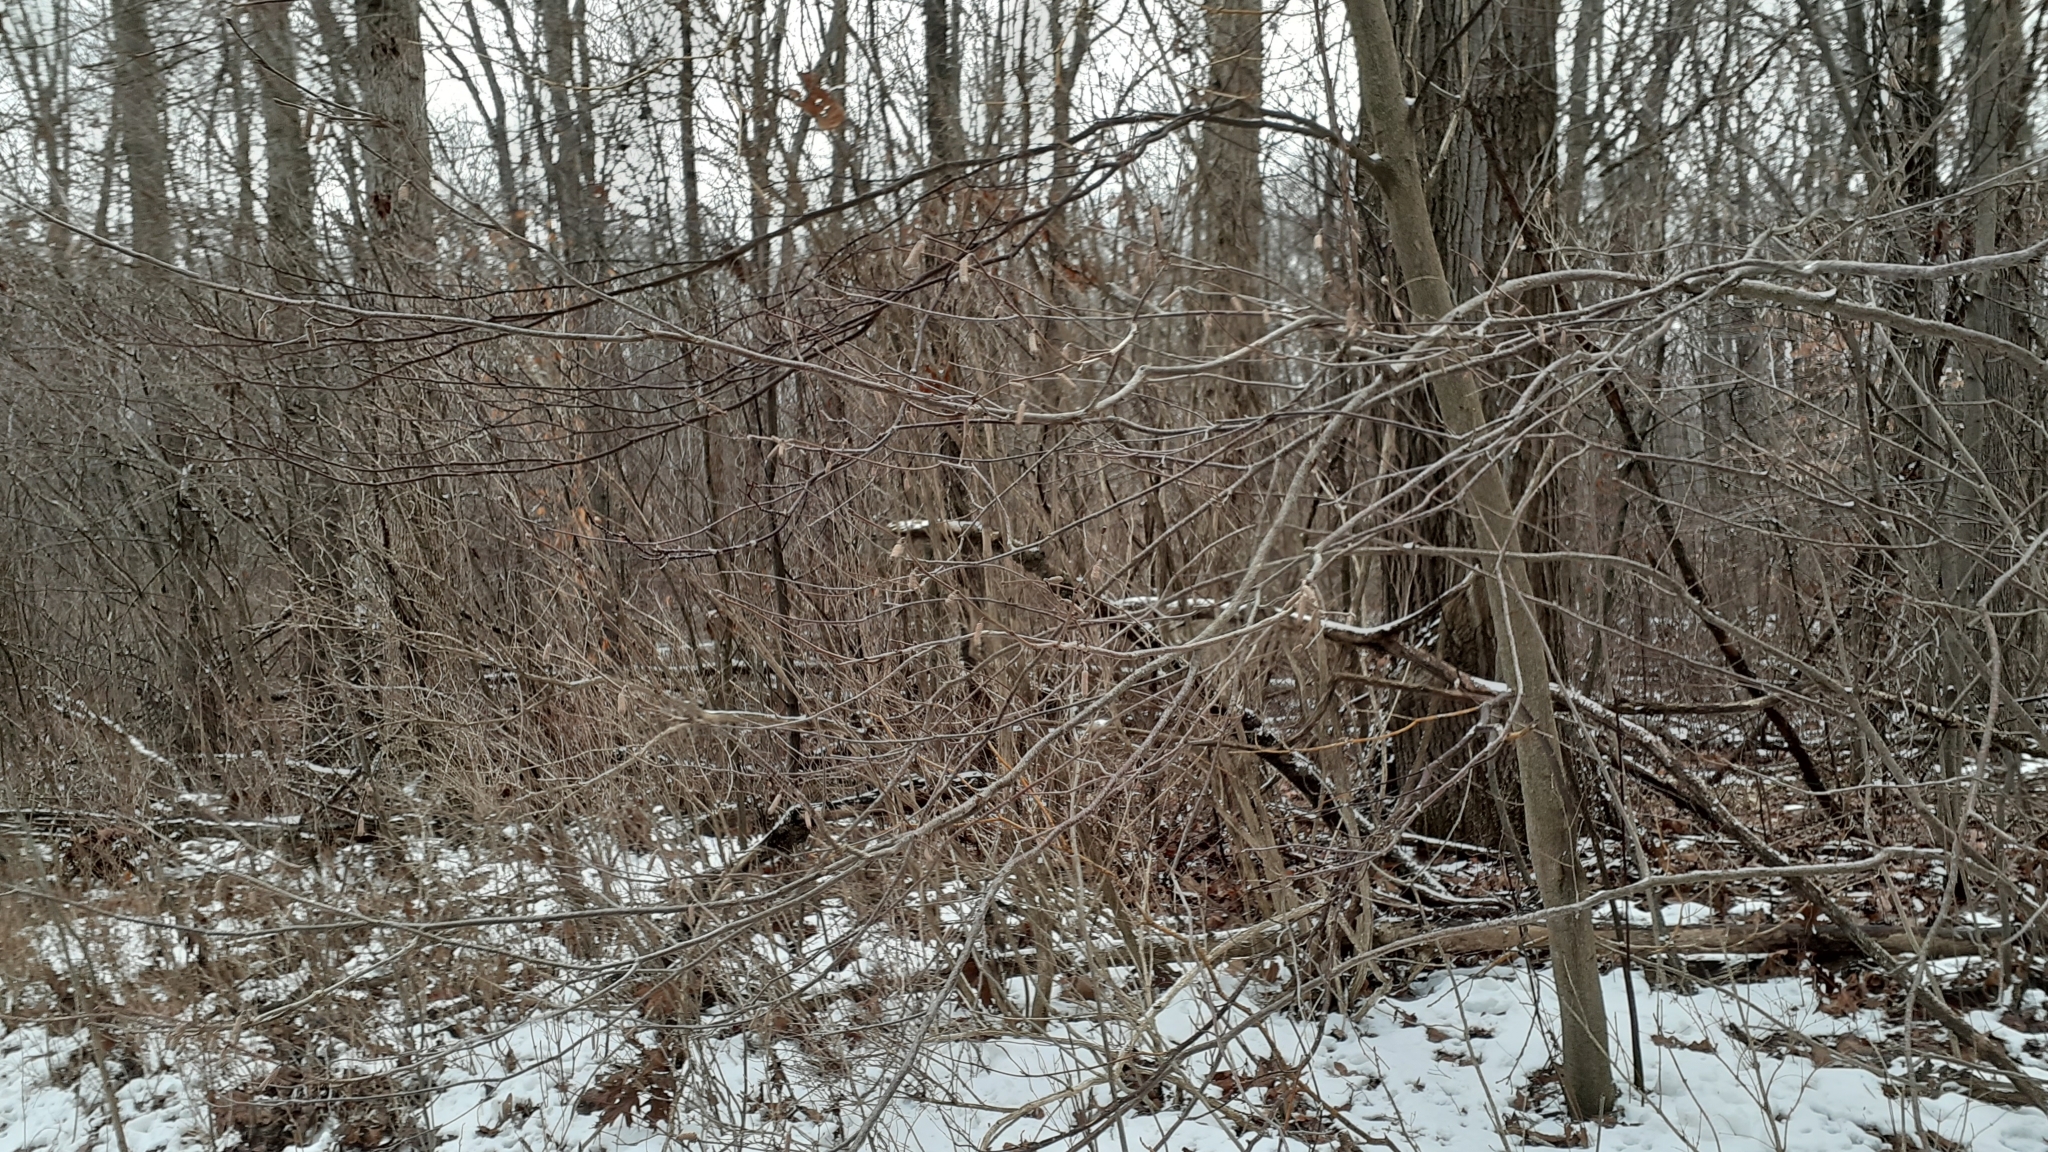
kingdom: Plantae
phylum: Tracheophyta
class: Magnoliopsida
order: Fagales
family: Betulaceae
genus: Corylus
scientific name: Corylus americana
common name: American hazel
